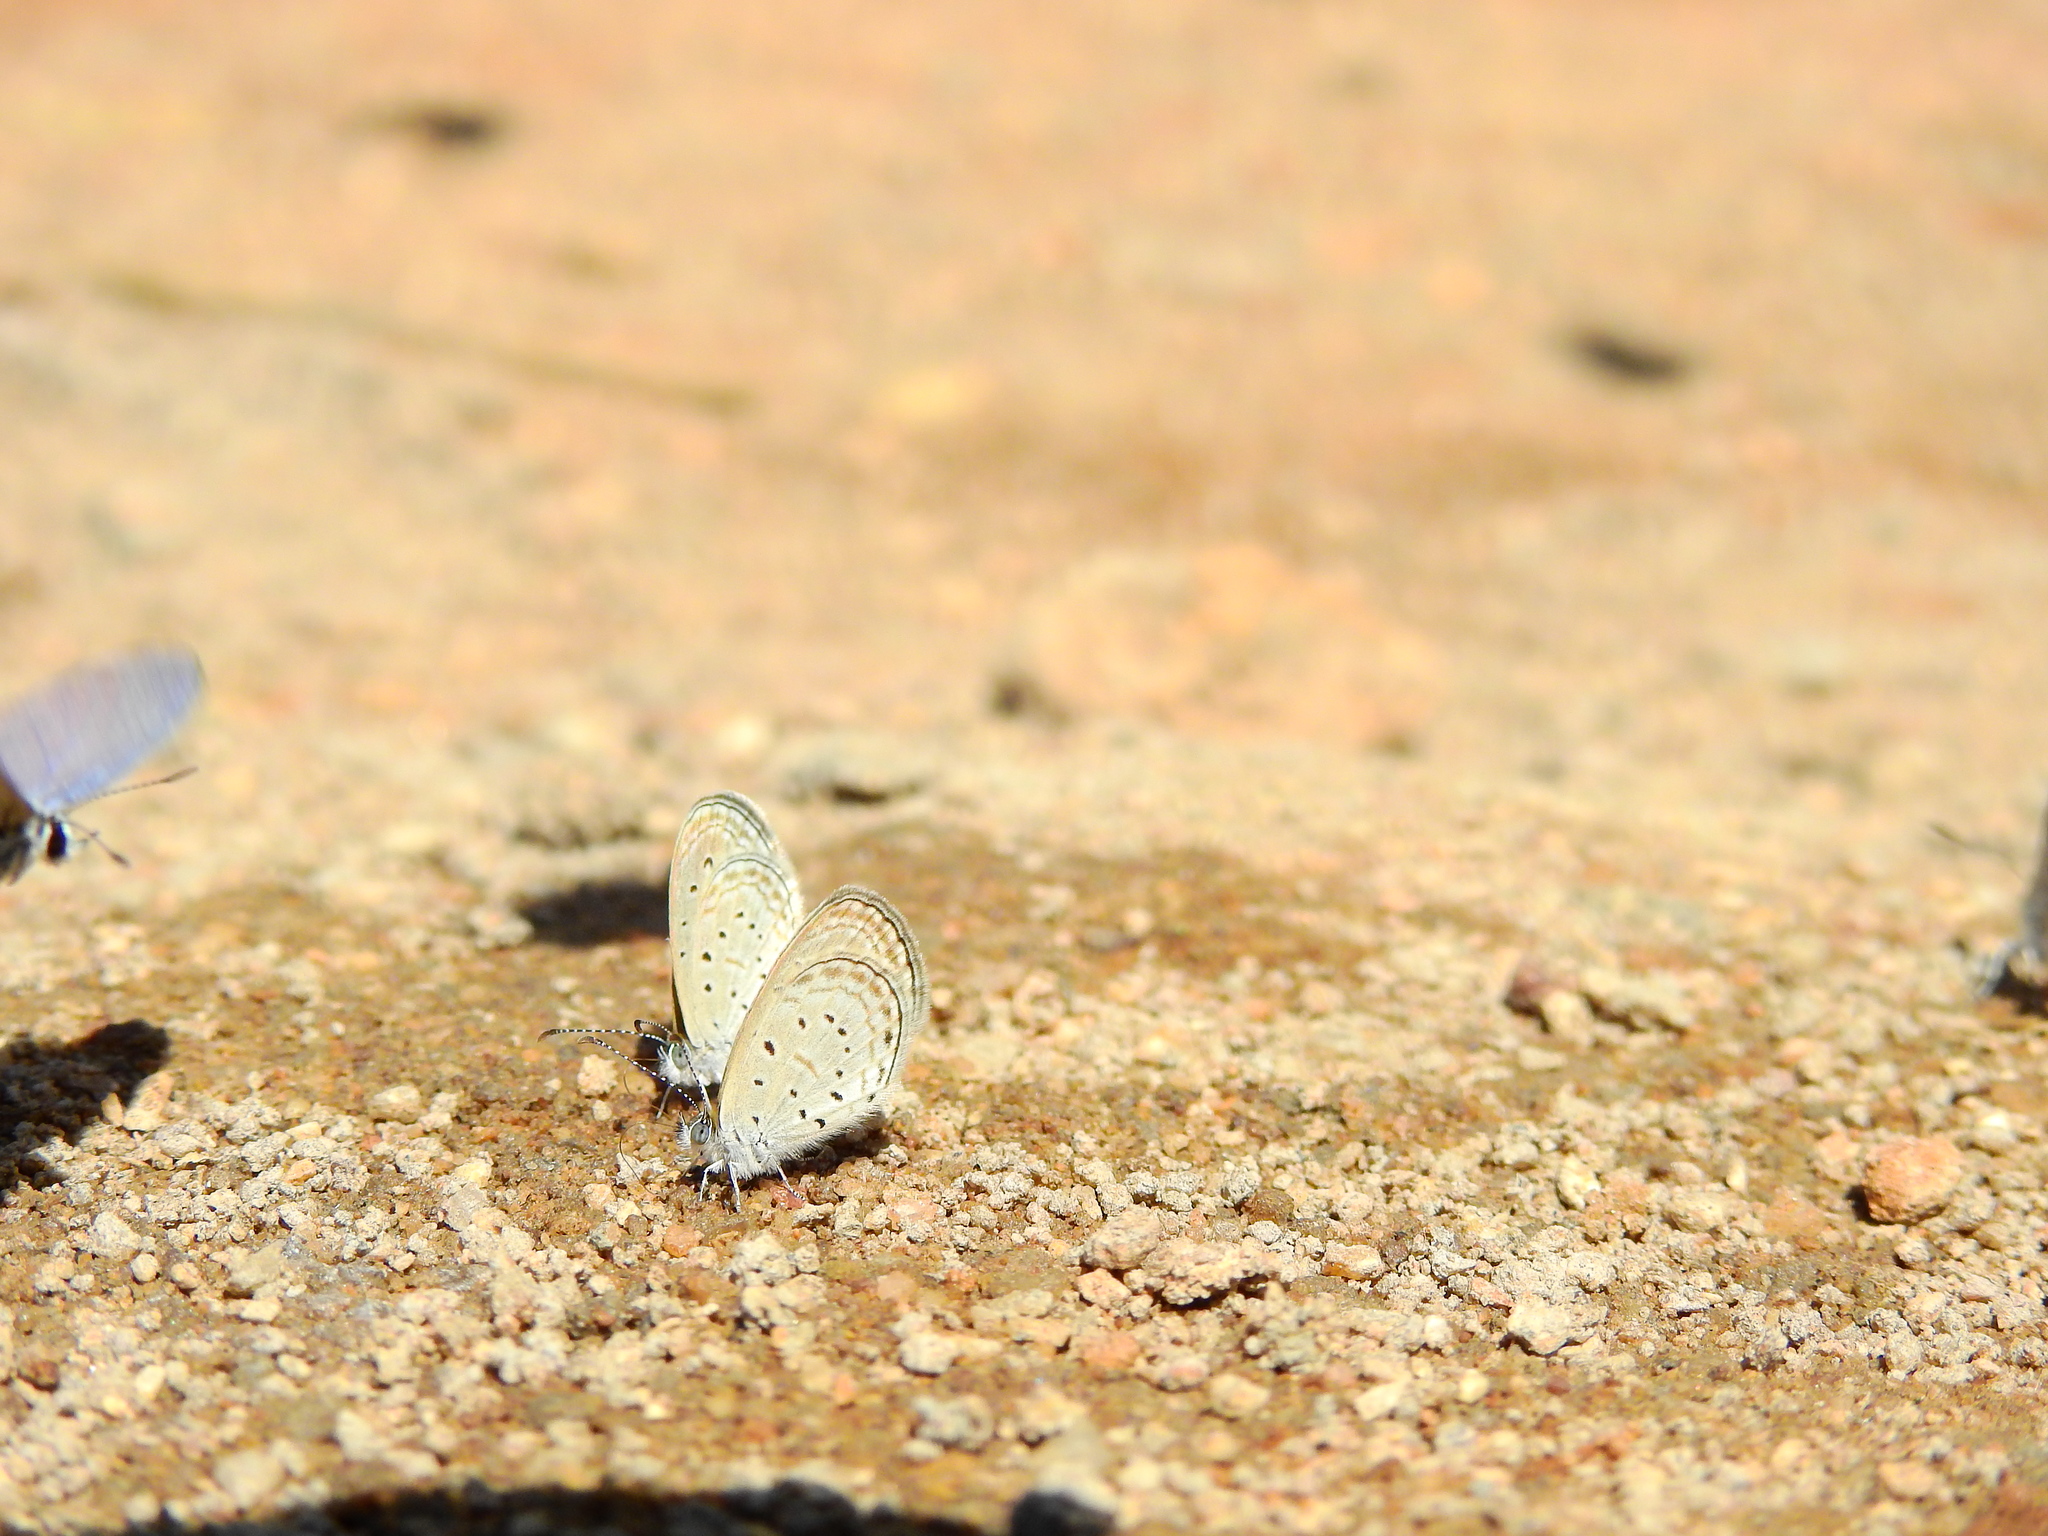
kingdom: Animalia
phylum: Arthropoda
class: Insecta
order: Lepidoptera
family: Lycaenidae
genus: Zizula
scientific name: Zizula hylax
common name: Gaika blue
